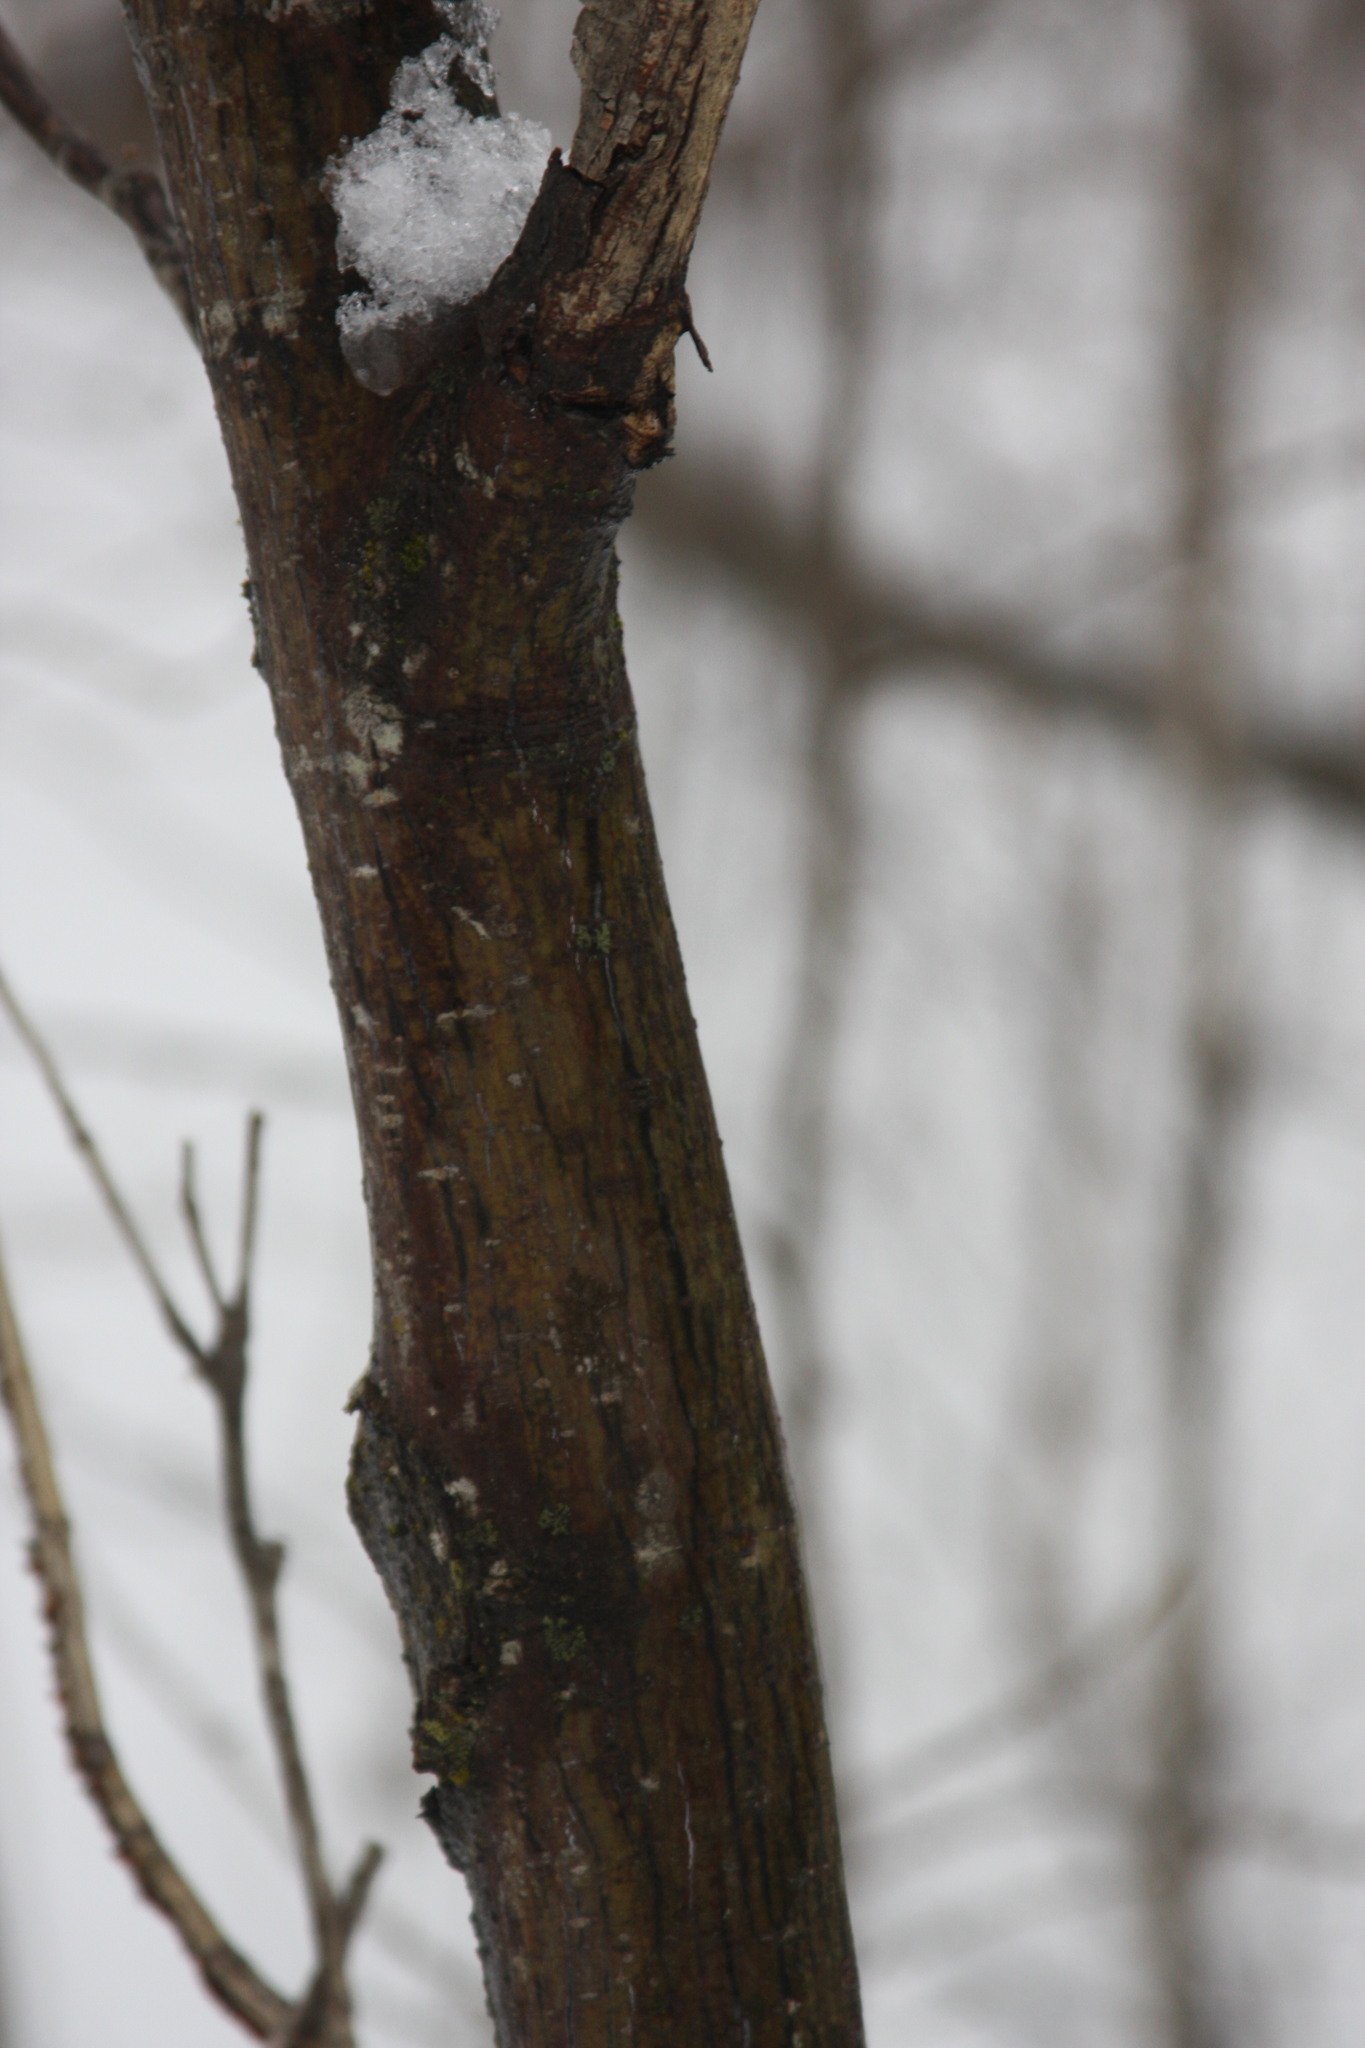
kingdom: Plantae
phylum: Tracheophyta
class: Magnoliopsida
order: Sapindales
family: Sapindaceae
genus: Acer
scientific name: Acer pensylvanicum
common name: Moosewood
